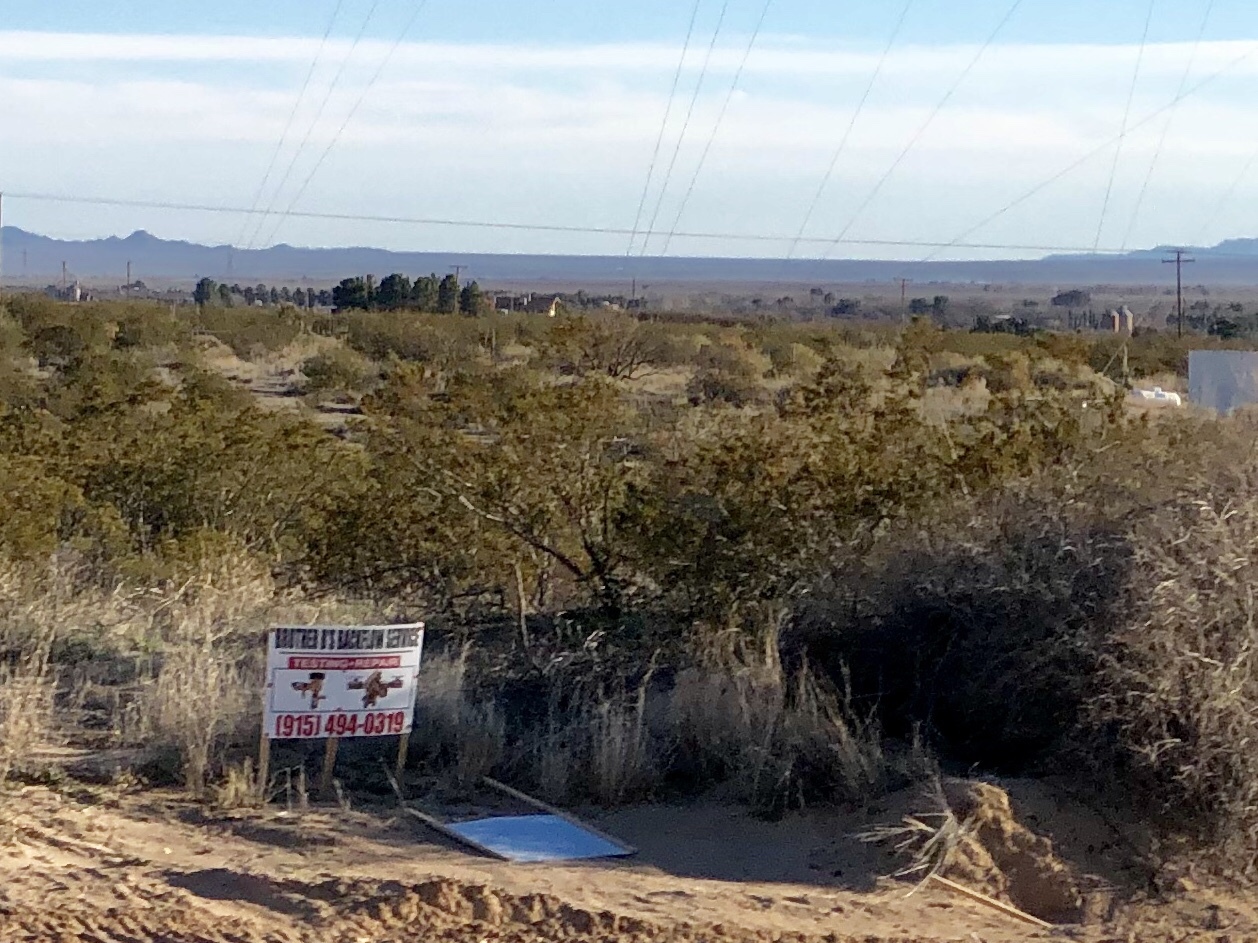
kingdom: Plantae
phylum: Tracheophyta
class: Magnoliopsida
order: Zygophyllales
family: Zygophyllaceae
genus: Larrea
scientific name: Larrea tridentata
